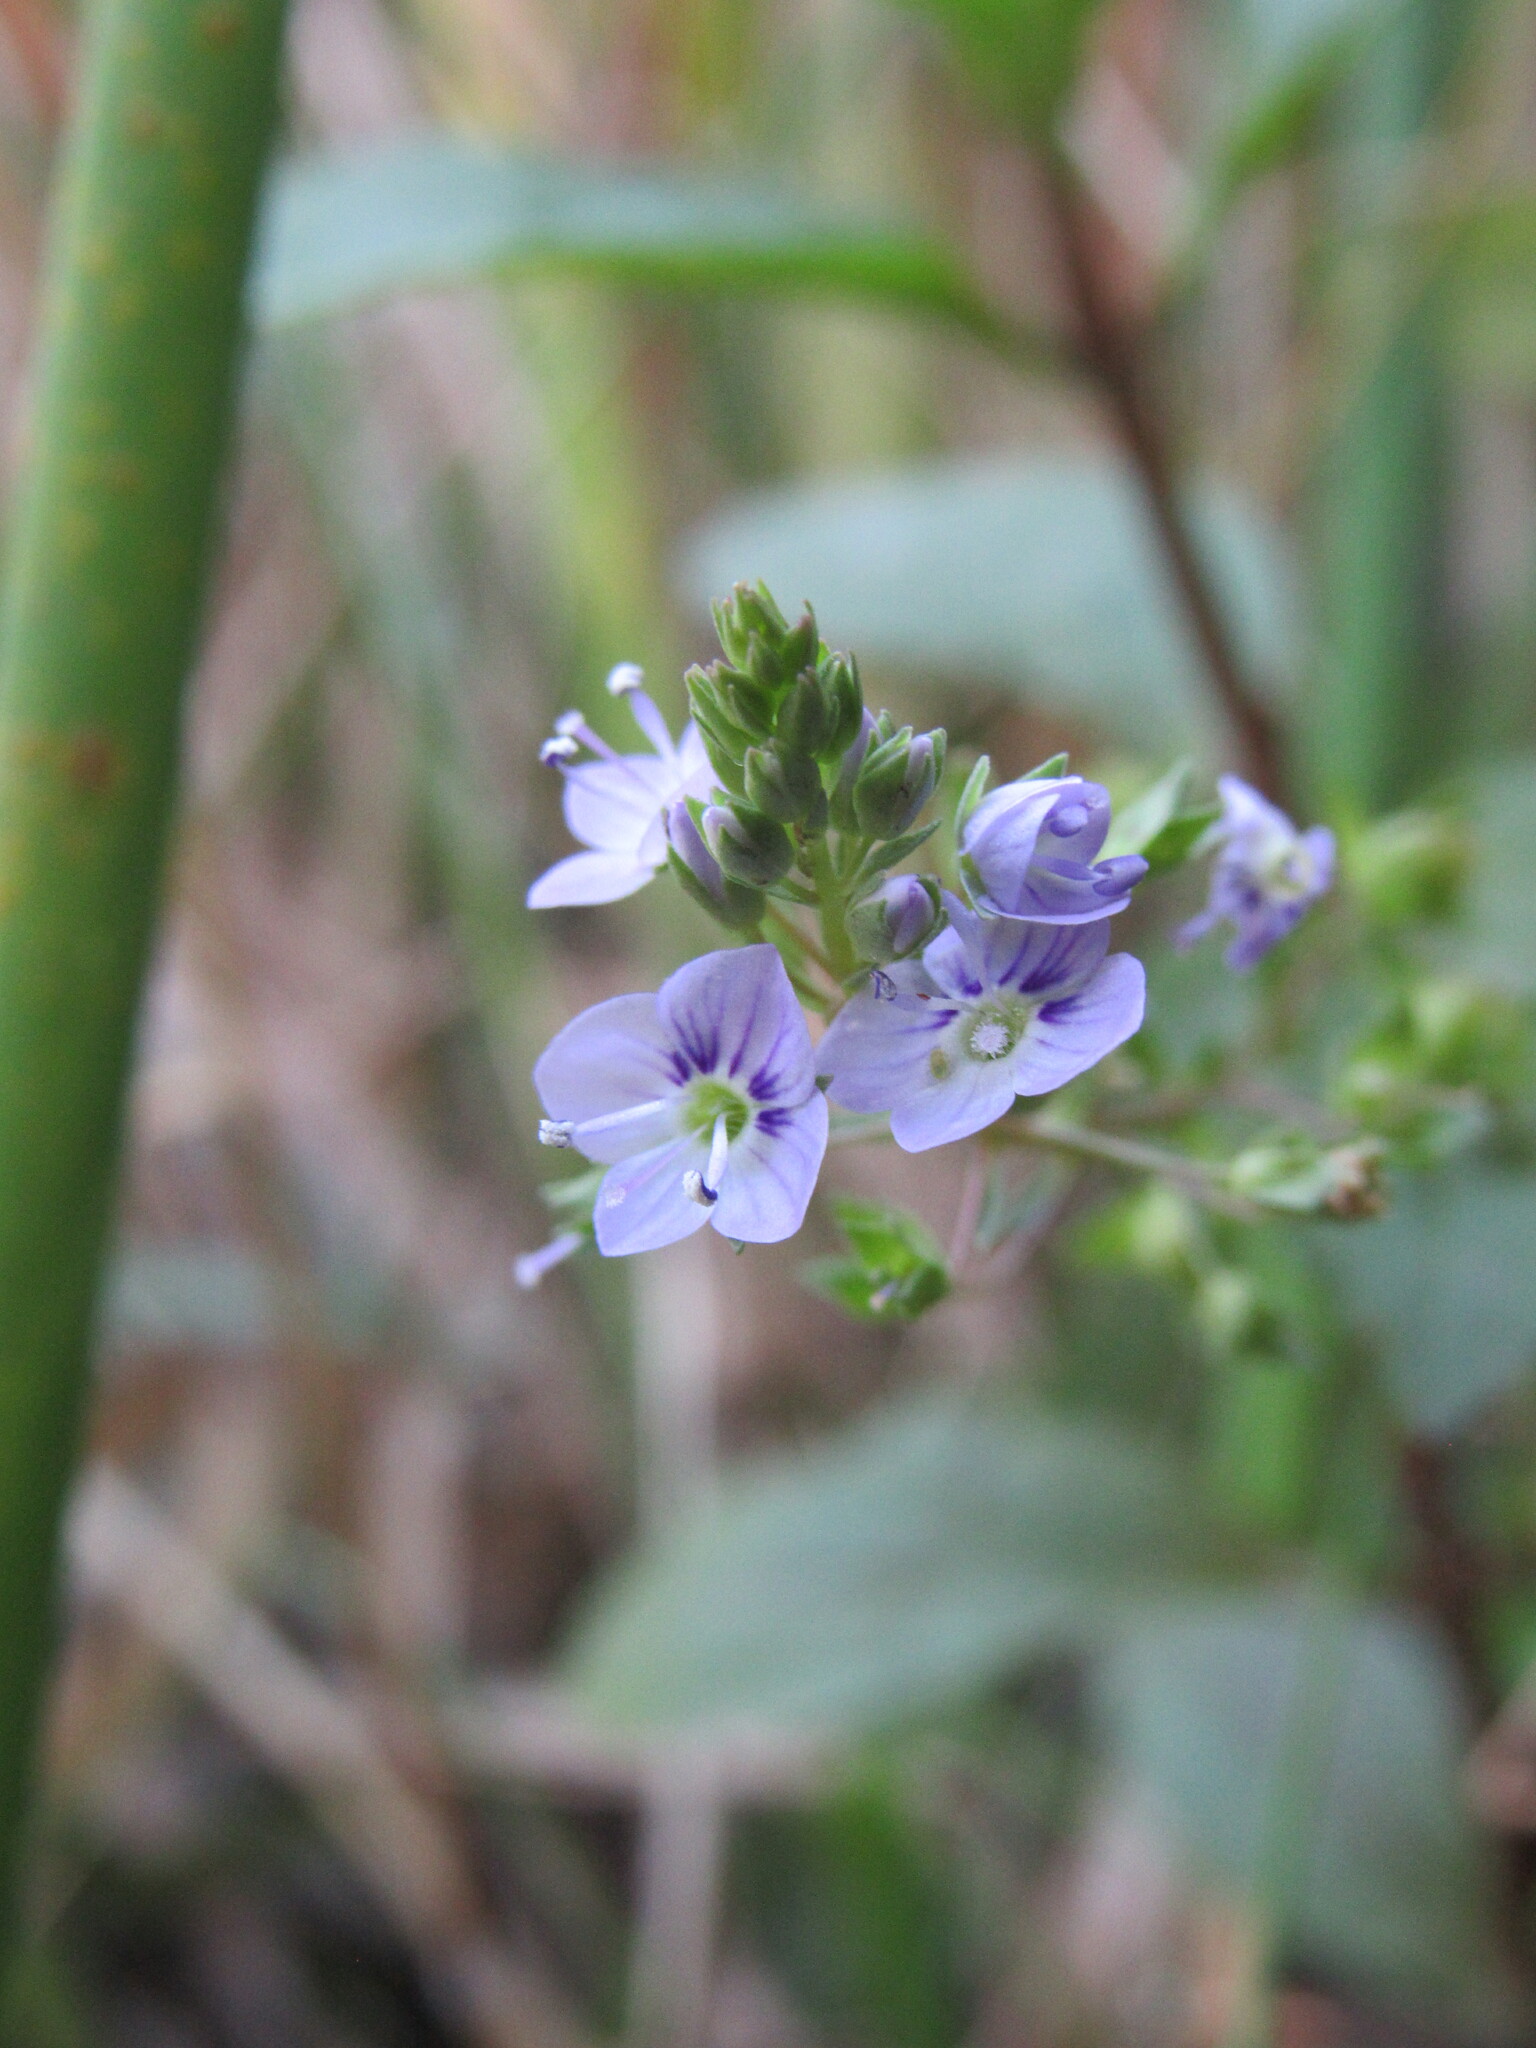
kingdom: Plantae
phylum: Tracheophyta
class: Magnoliopsida
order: Lamiales
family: Plantaginaceae
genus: Veronica
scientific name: Veronica anagallis-aquatica
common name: Water speedwell
